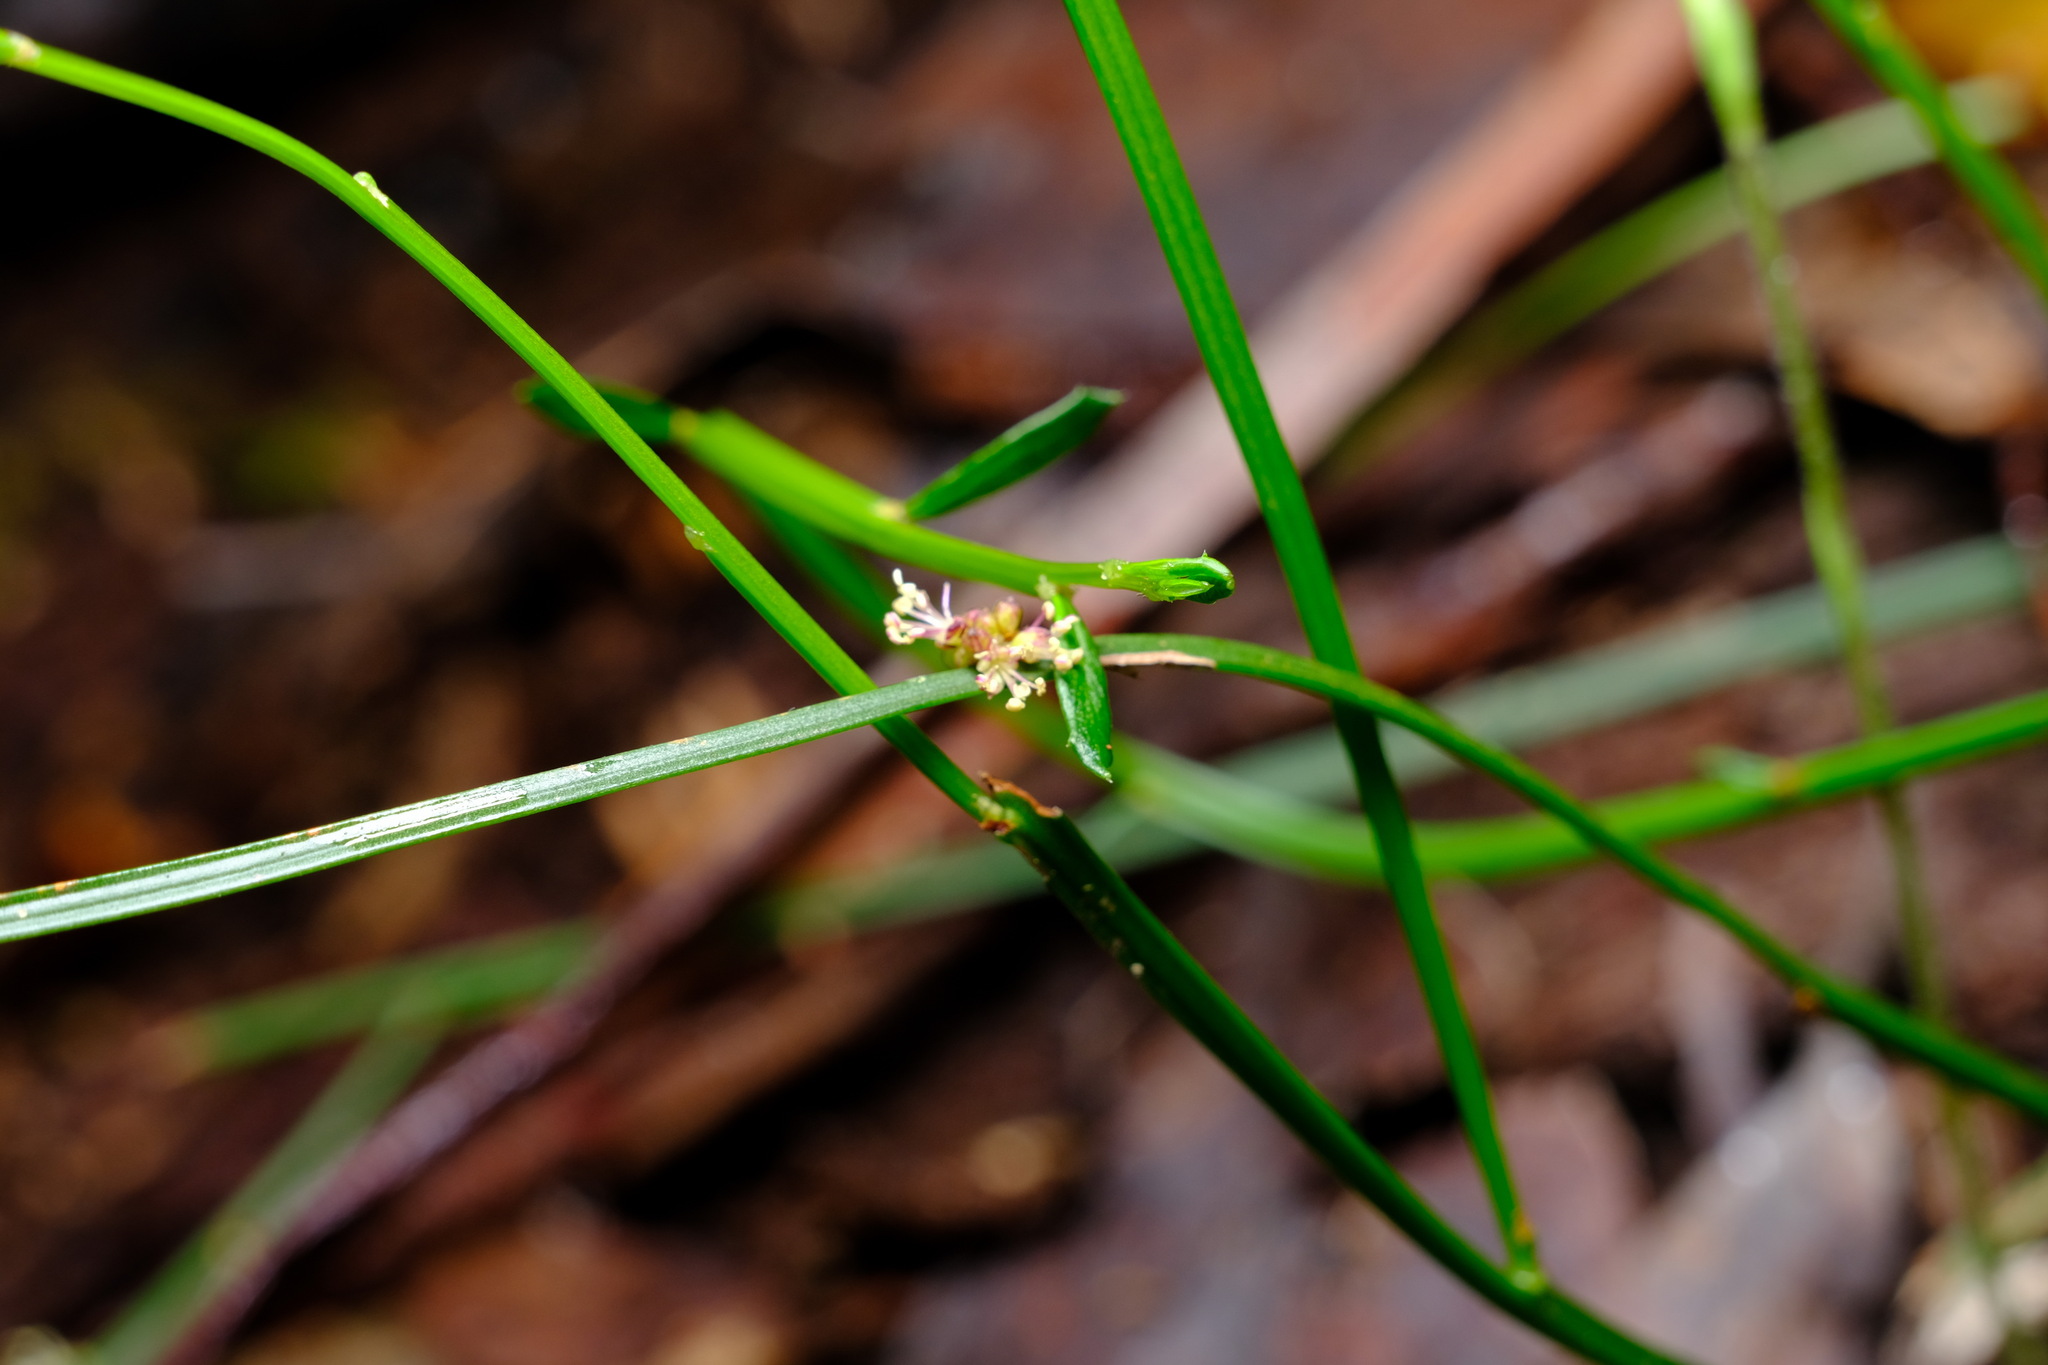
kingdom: Plantae
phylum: Tracheophyta
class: Magnoliopsida
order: Malpighiales
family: Euphorbiaceae
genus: Amperea
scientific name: Amperea xiphoclada
